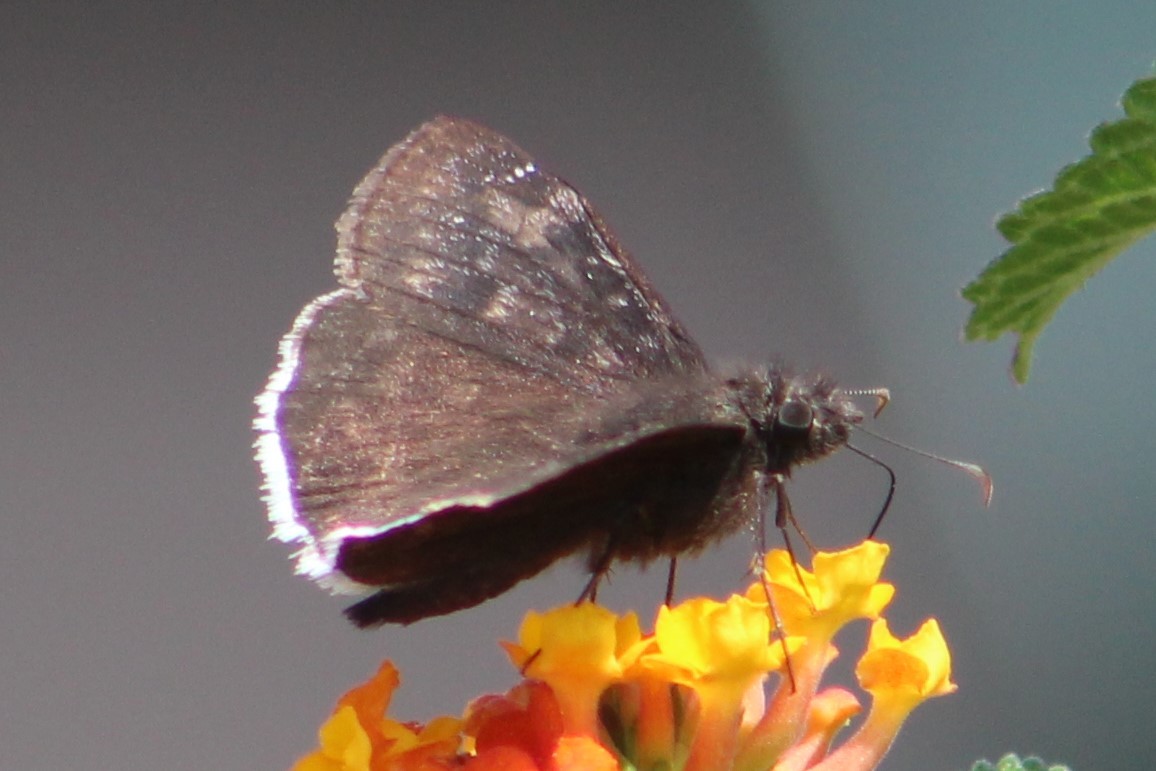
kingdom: Animalia
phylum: Arthropoda
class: Insecta
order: Lepidoptera
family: Hesperiidae
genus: Erynnis
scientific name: Erynnis funeralis
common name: Funereal duskywing
